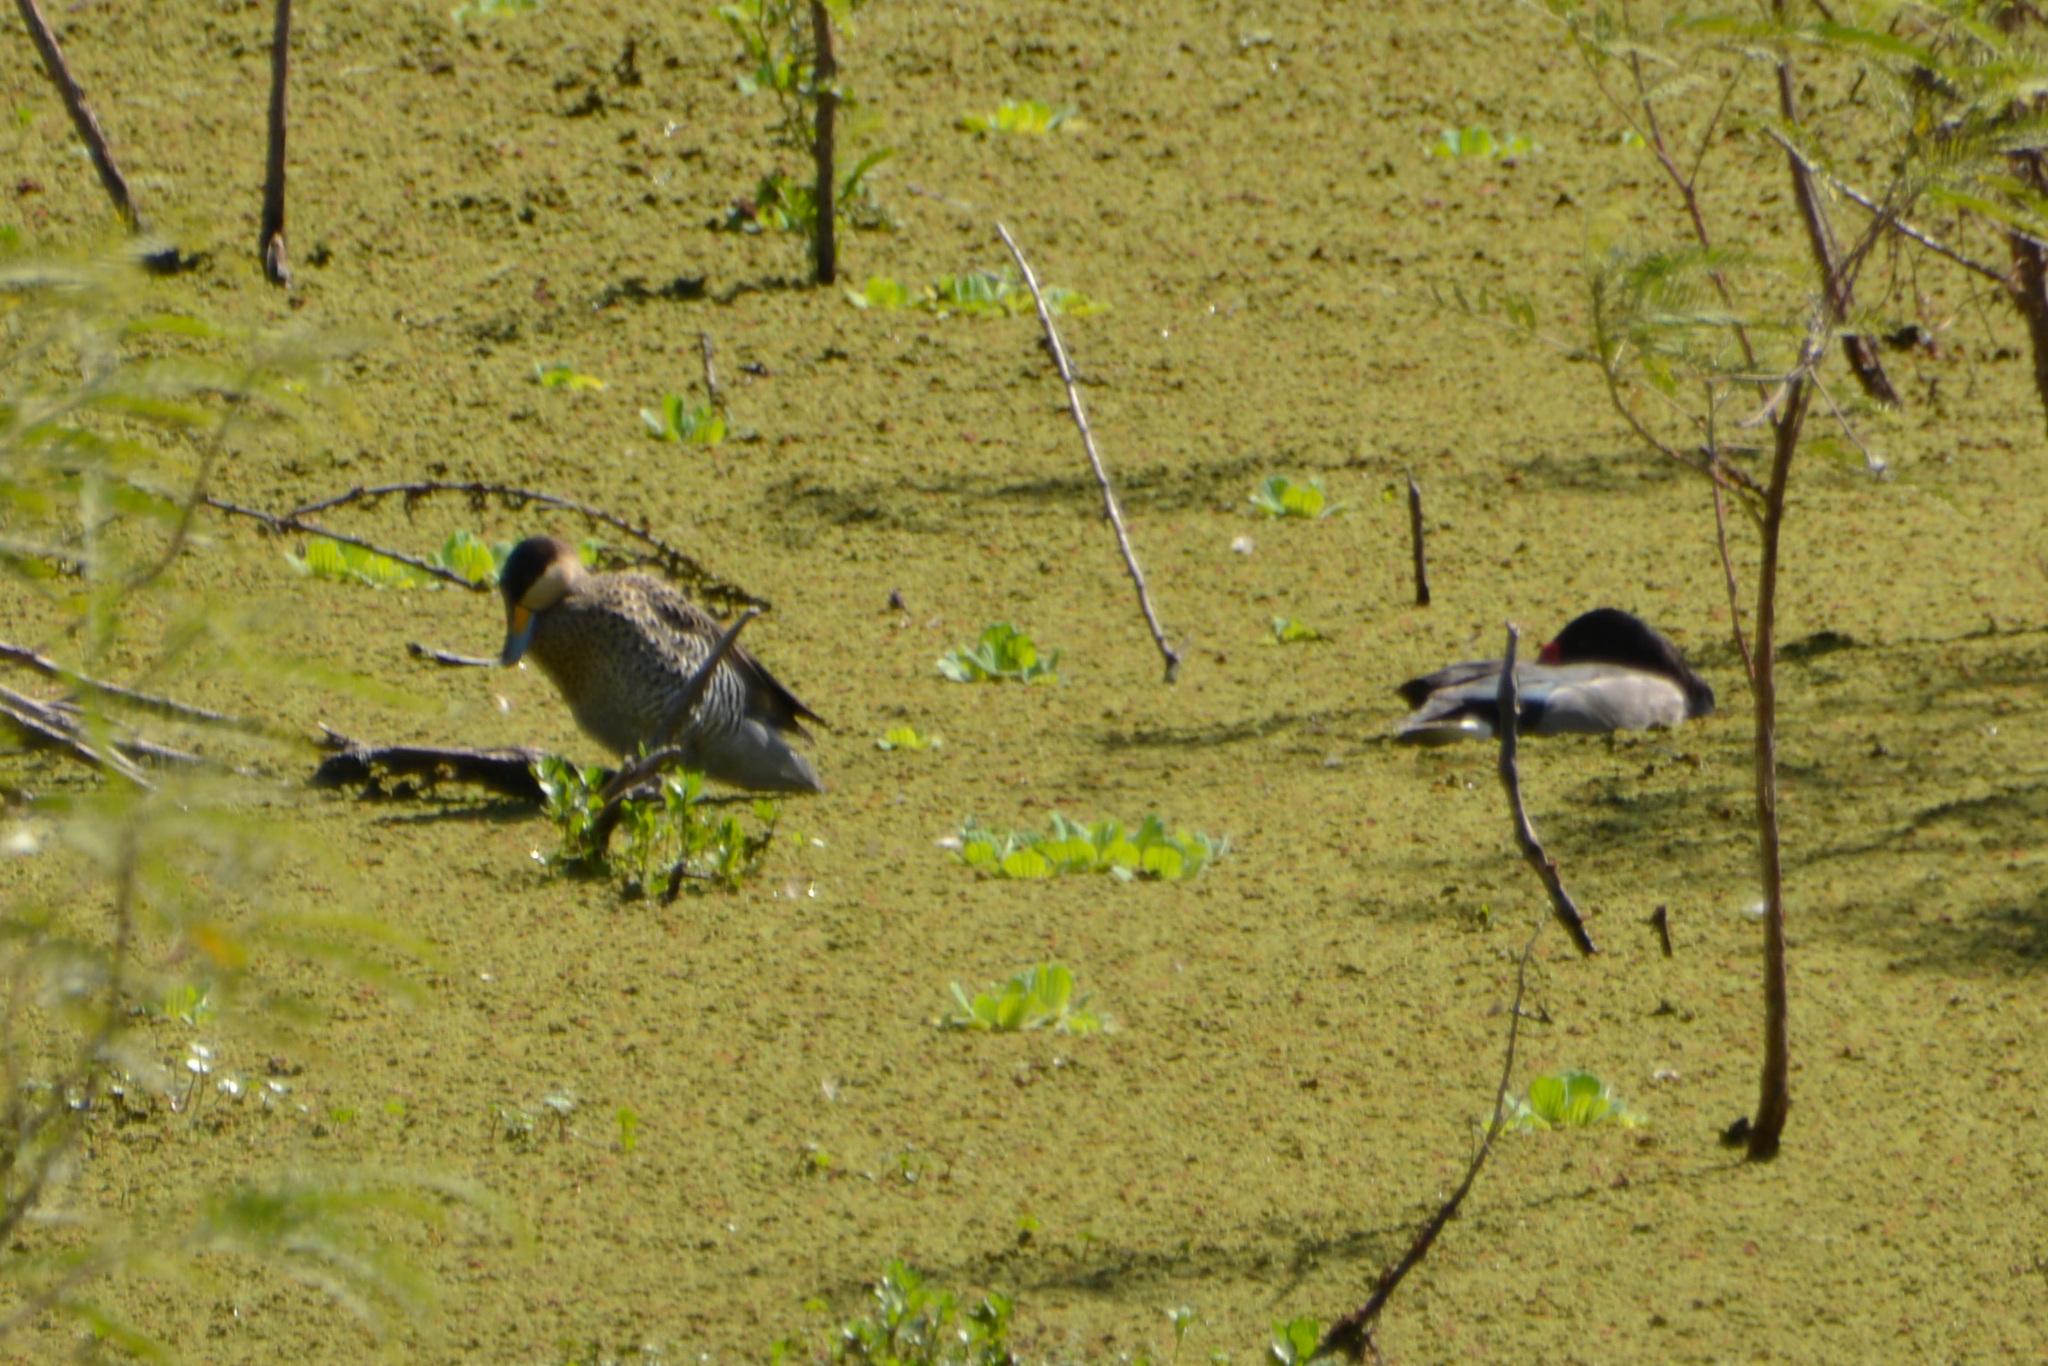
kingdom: Animalia
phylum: Chordata
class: Aves
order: Anseriformes
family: Anatidae
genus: Spatula
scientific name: Spatula versicolor
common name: Silver teal
